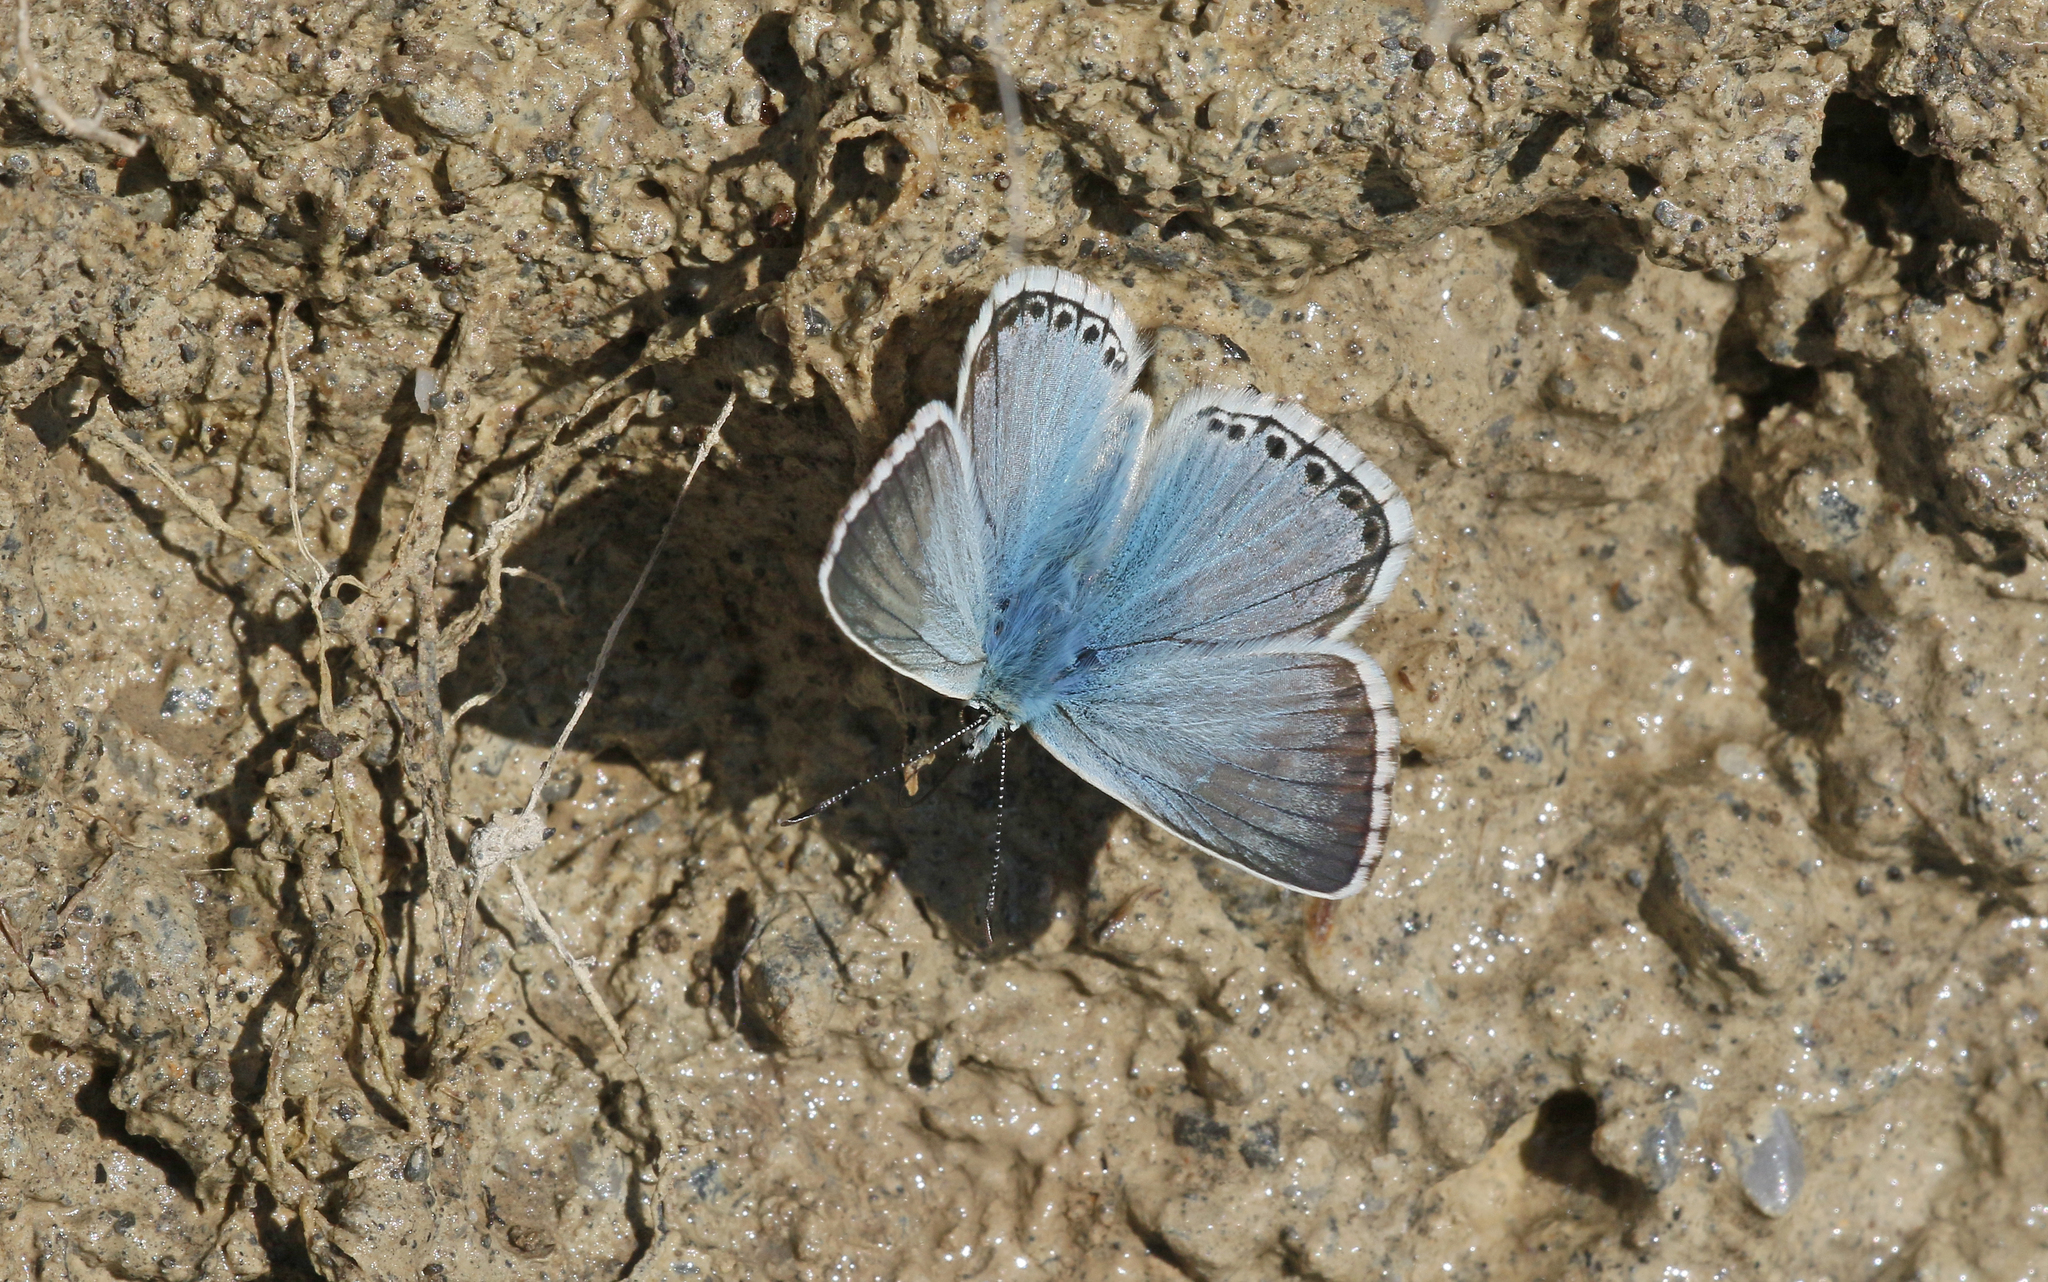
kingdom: Animalia
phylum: Arthropoda
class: Insecta
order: Lepidoptera
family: Lycaenidae
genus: Lysandra
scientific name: Lysandra coridon
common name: Chalkhill blue
